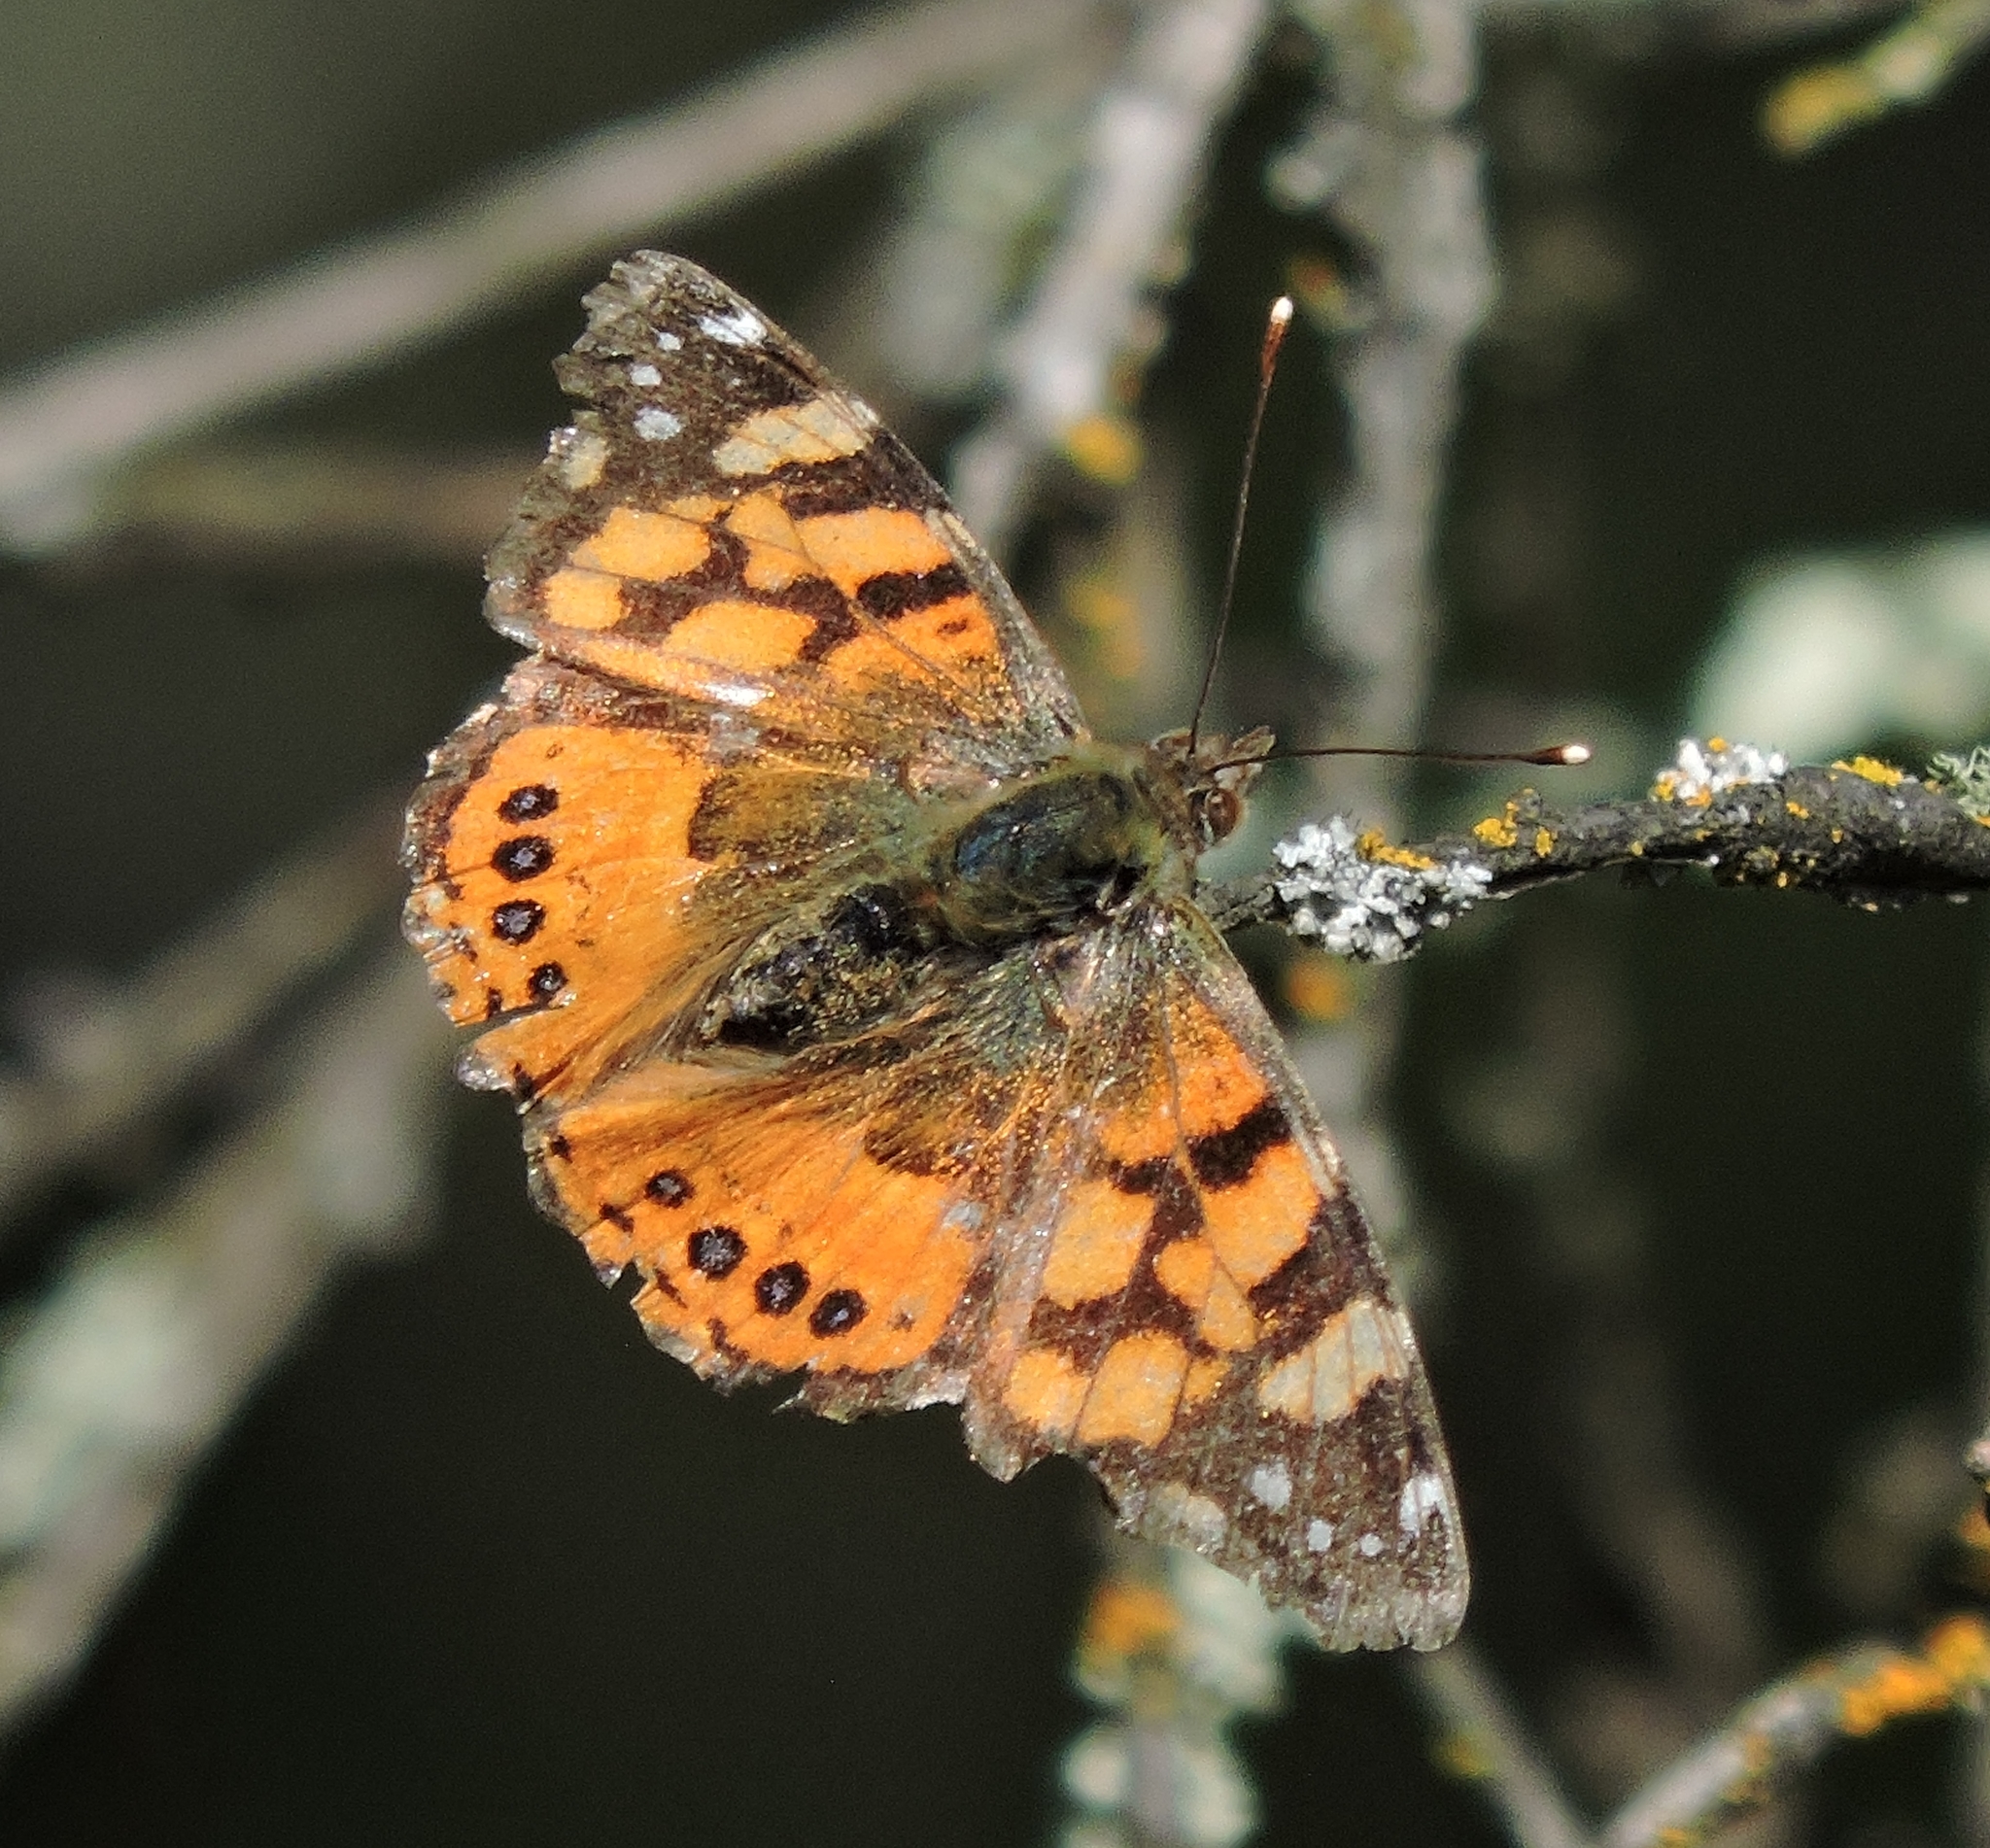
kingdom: Animalia
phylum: Arthropoda
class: Insecta
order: Lepidoptera
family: Nymphalidae
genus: Vanessa
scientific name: Vanessa annabella
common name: West coast lady
